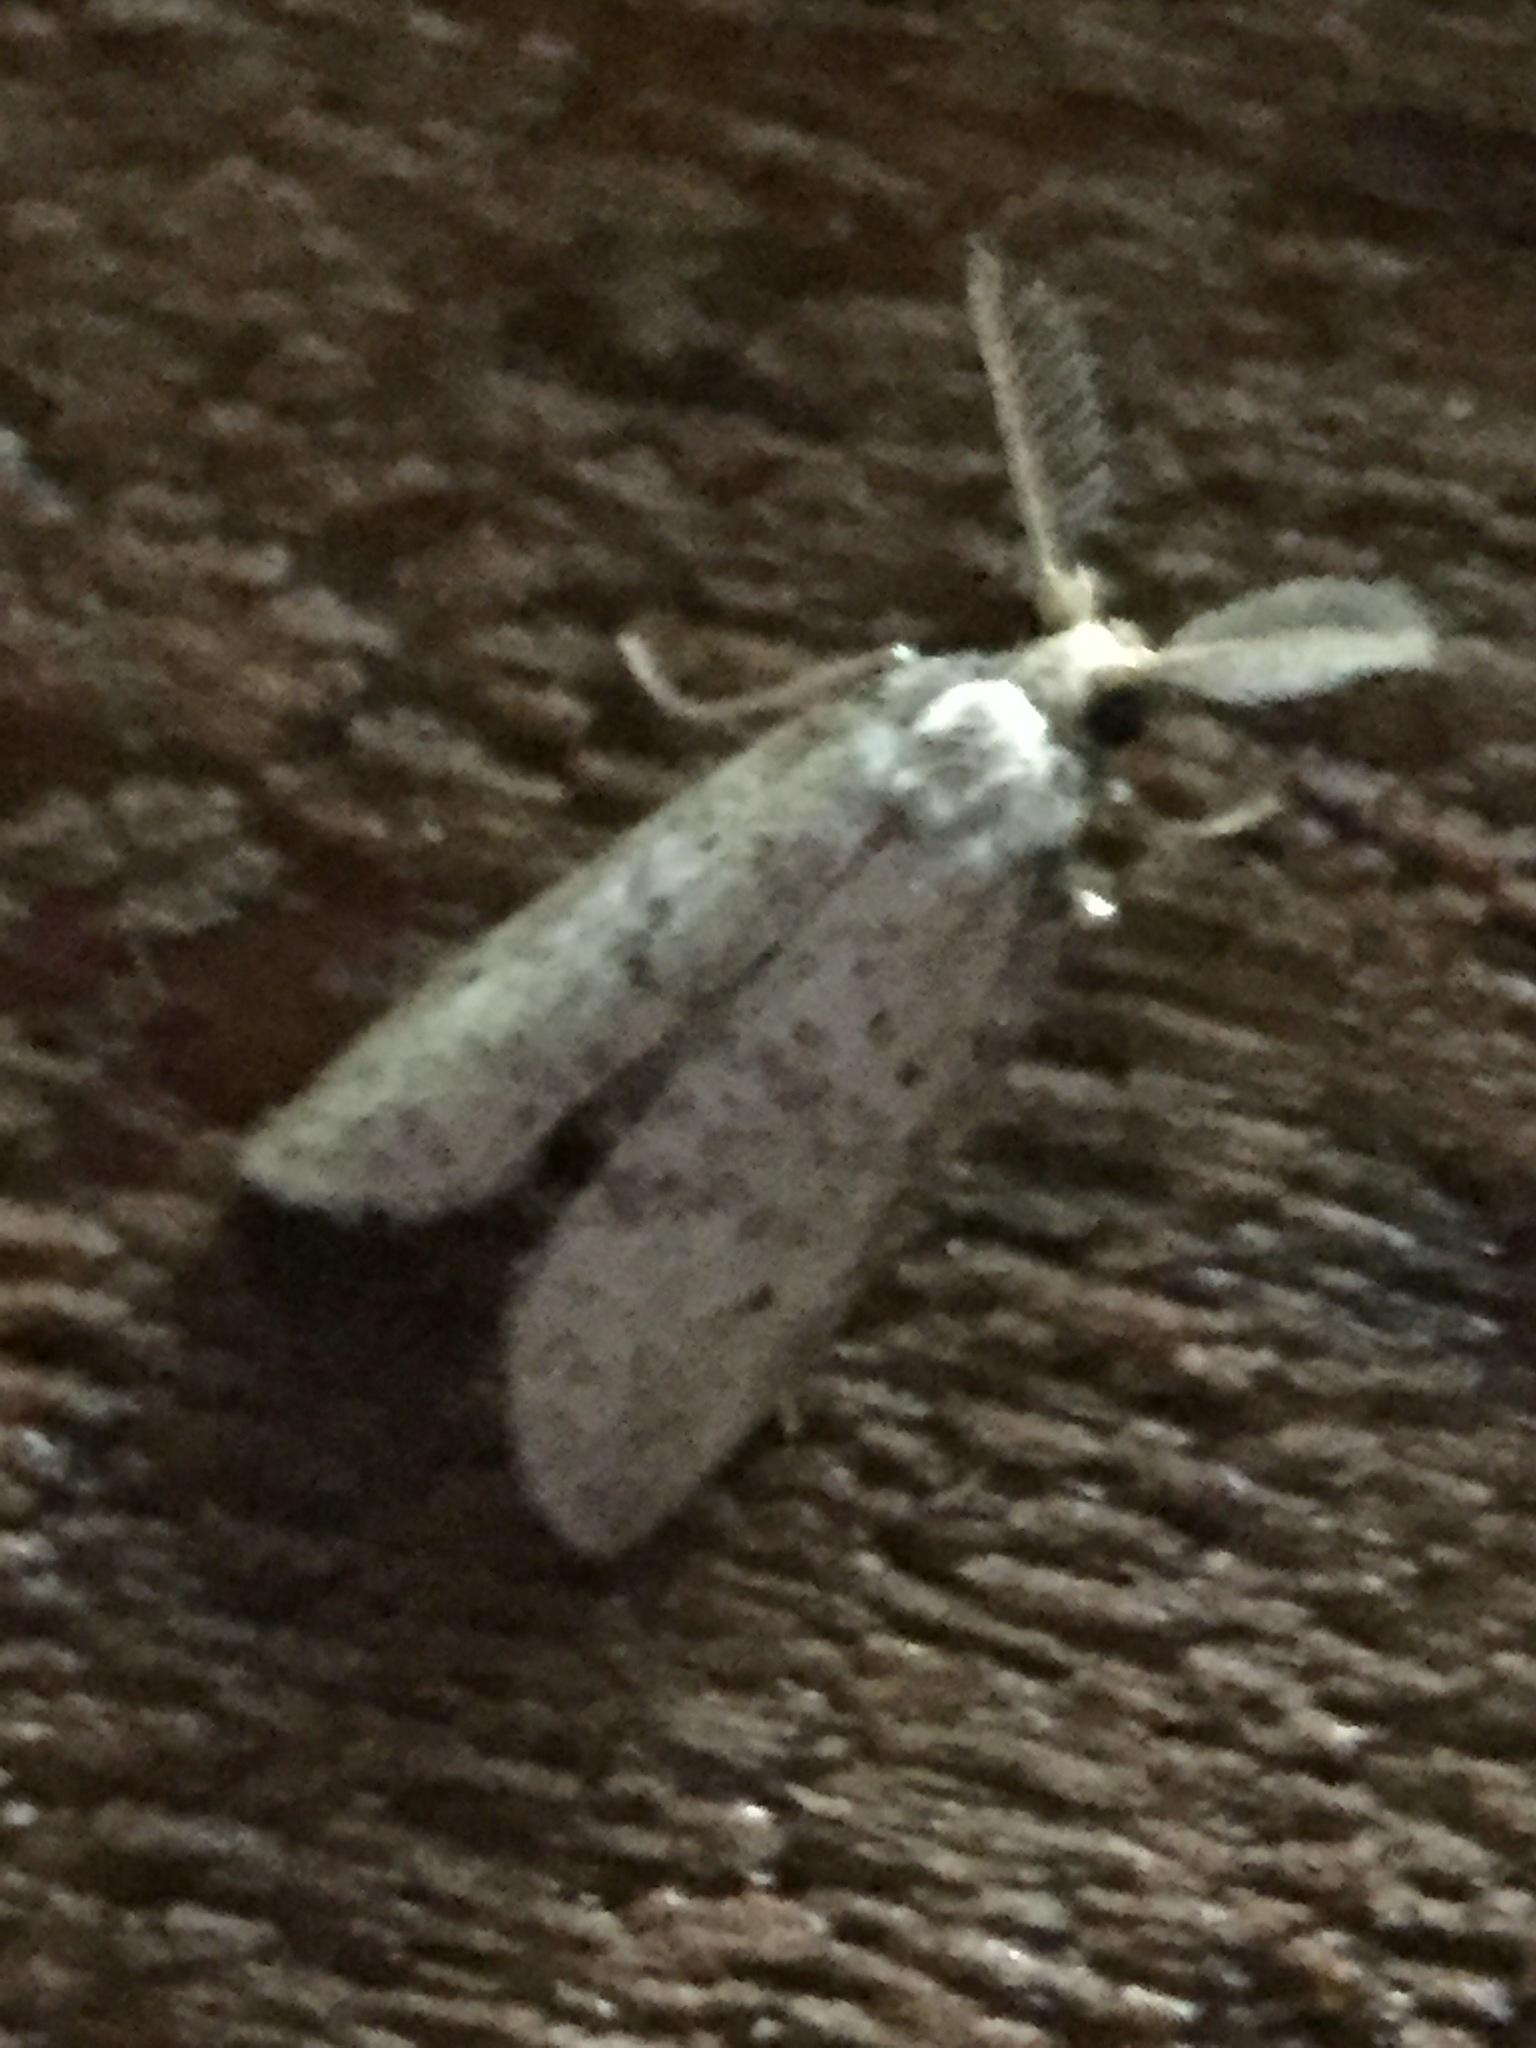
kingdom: Animalia
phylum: Arthropoda
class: Insecta
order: Lepidoptera
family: Galacticidae
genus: Tanaoctena
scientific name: Tanaoctena dubia
